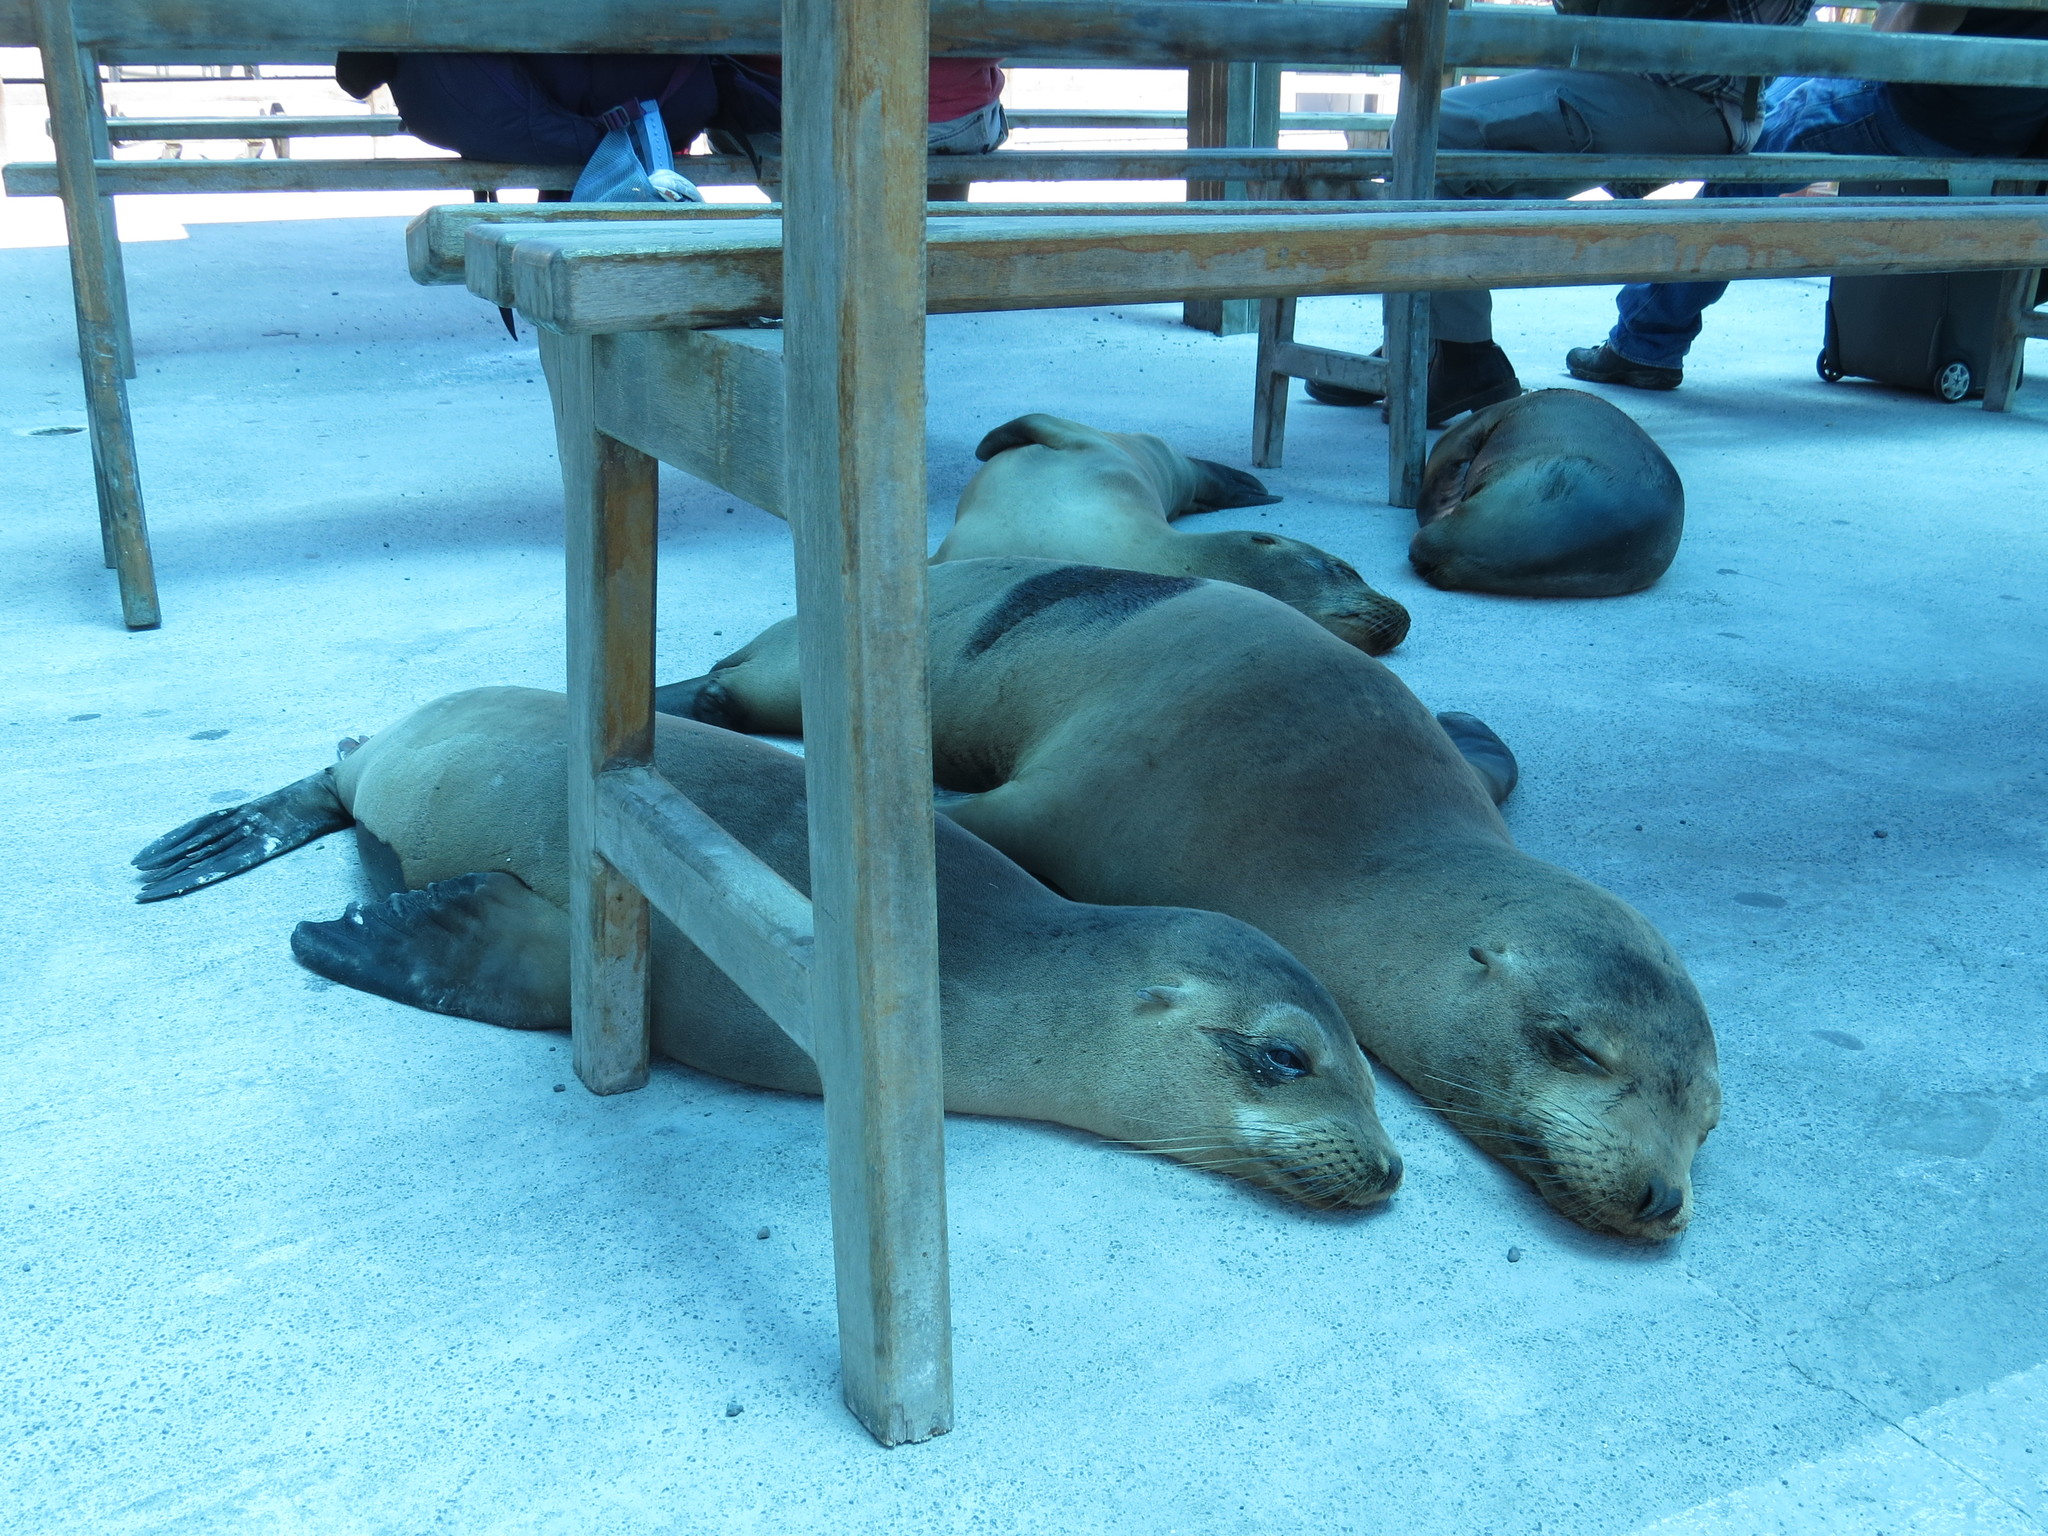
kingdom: Animalia
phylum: Chordata
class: Mammalia
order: Carnivora
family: Otariidae
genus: Zalophus
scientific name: Zalophus wollebaeki
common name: Galapagos sea lion
